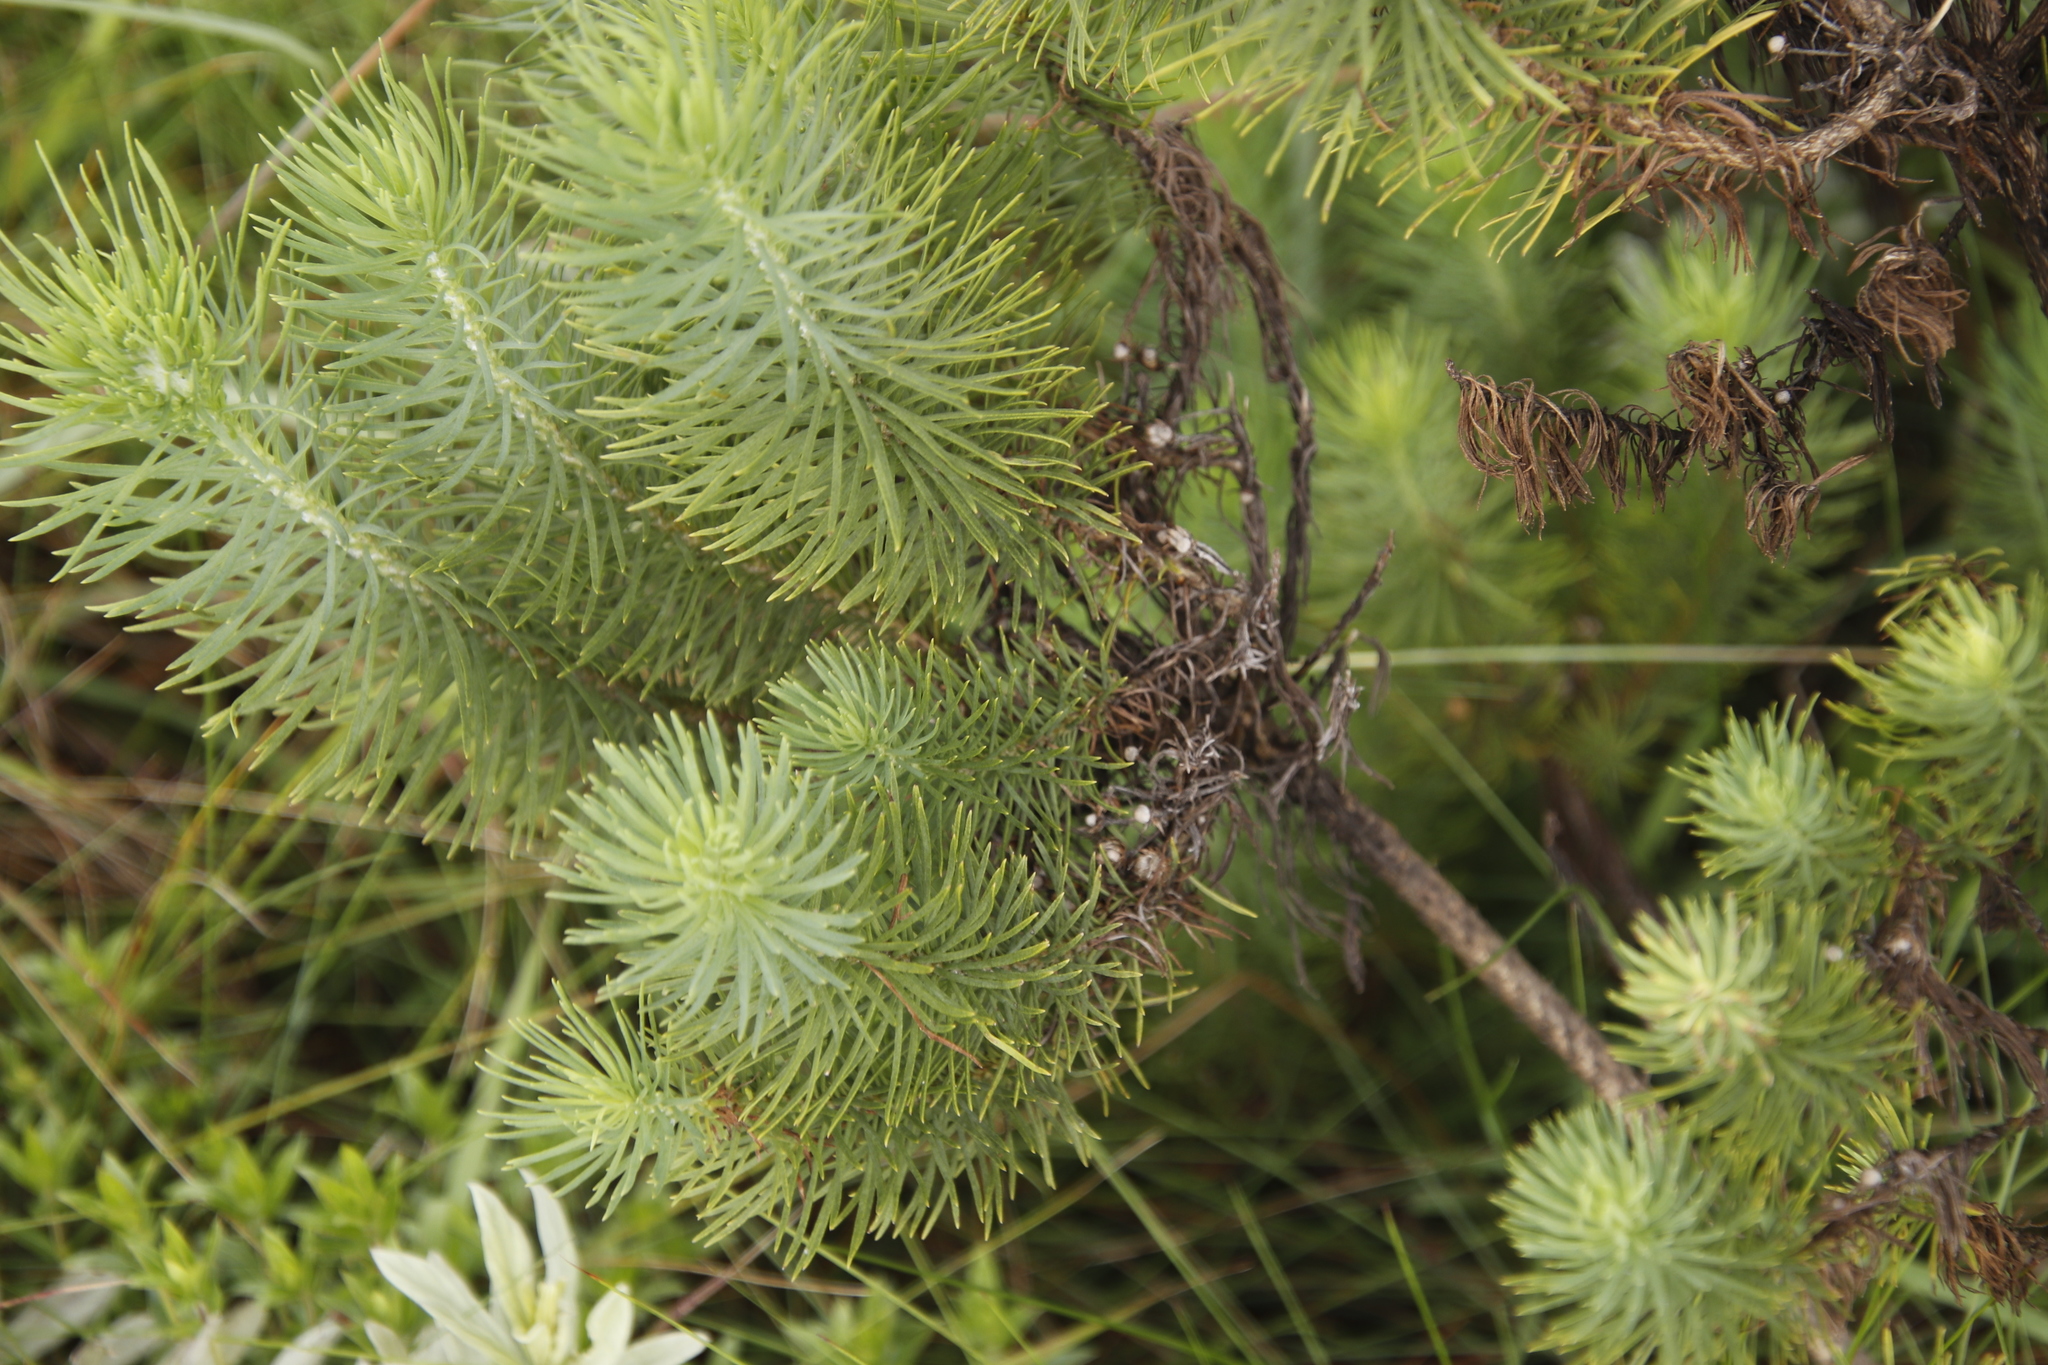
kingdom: Plantae
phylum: Tracheophyta
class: Magnoliopsida
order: Asterales
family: Asteraceae
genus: Phymaspermum
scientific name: Phymaspermum athanasioides
